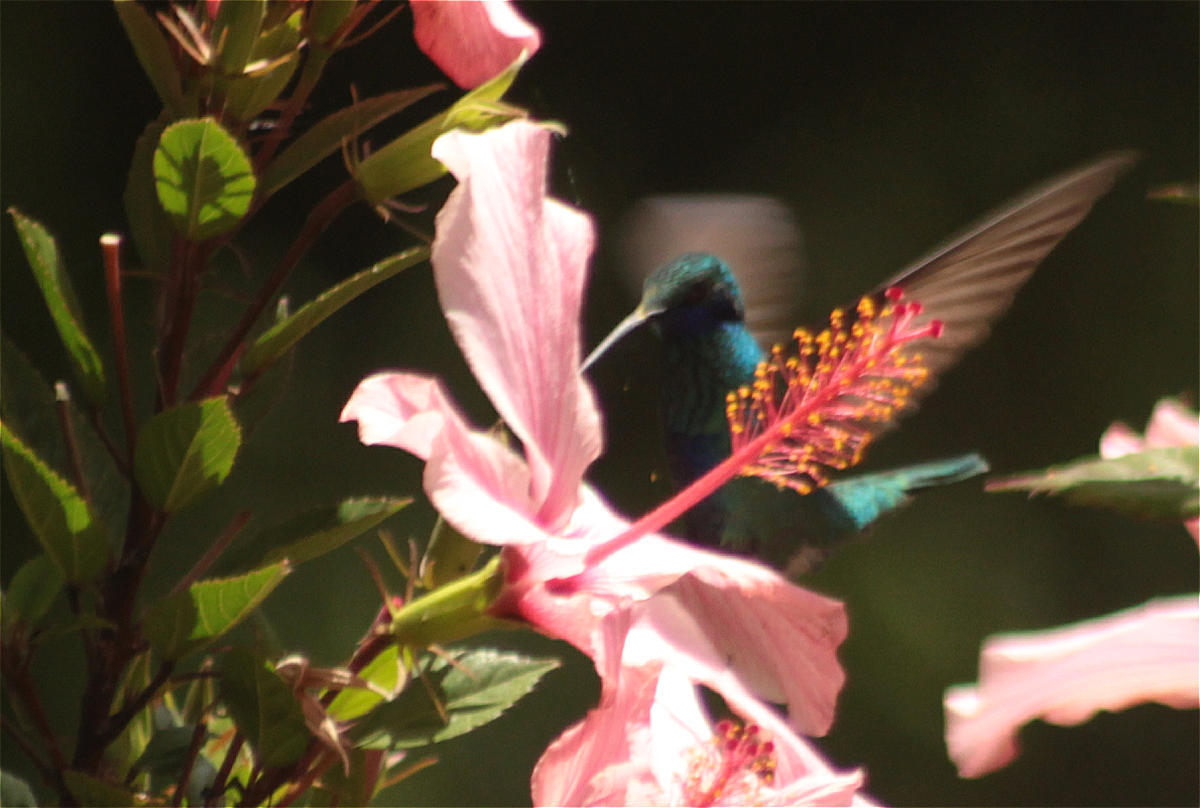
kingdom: Animalia
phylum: Chordata
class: Aves
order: Apodiformes
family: Trochilidae
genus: Colibri
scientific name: Colibri coruscans
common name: Sparkling violetear
